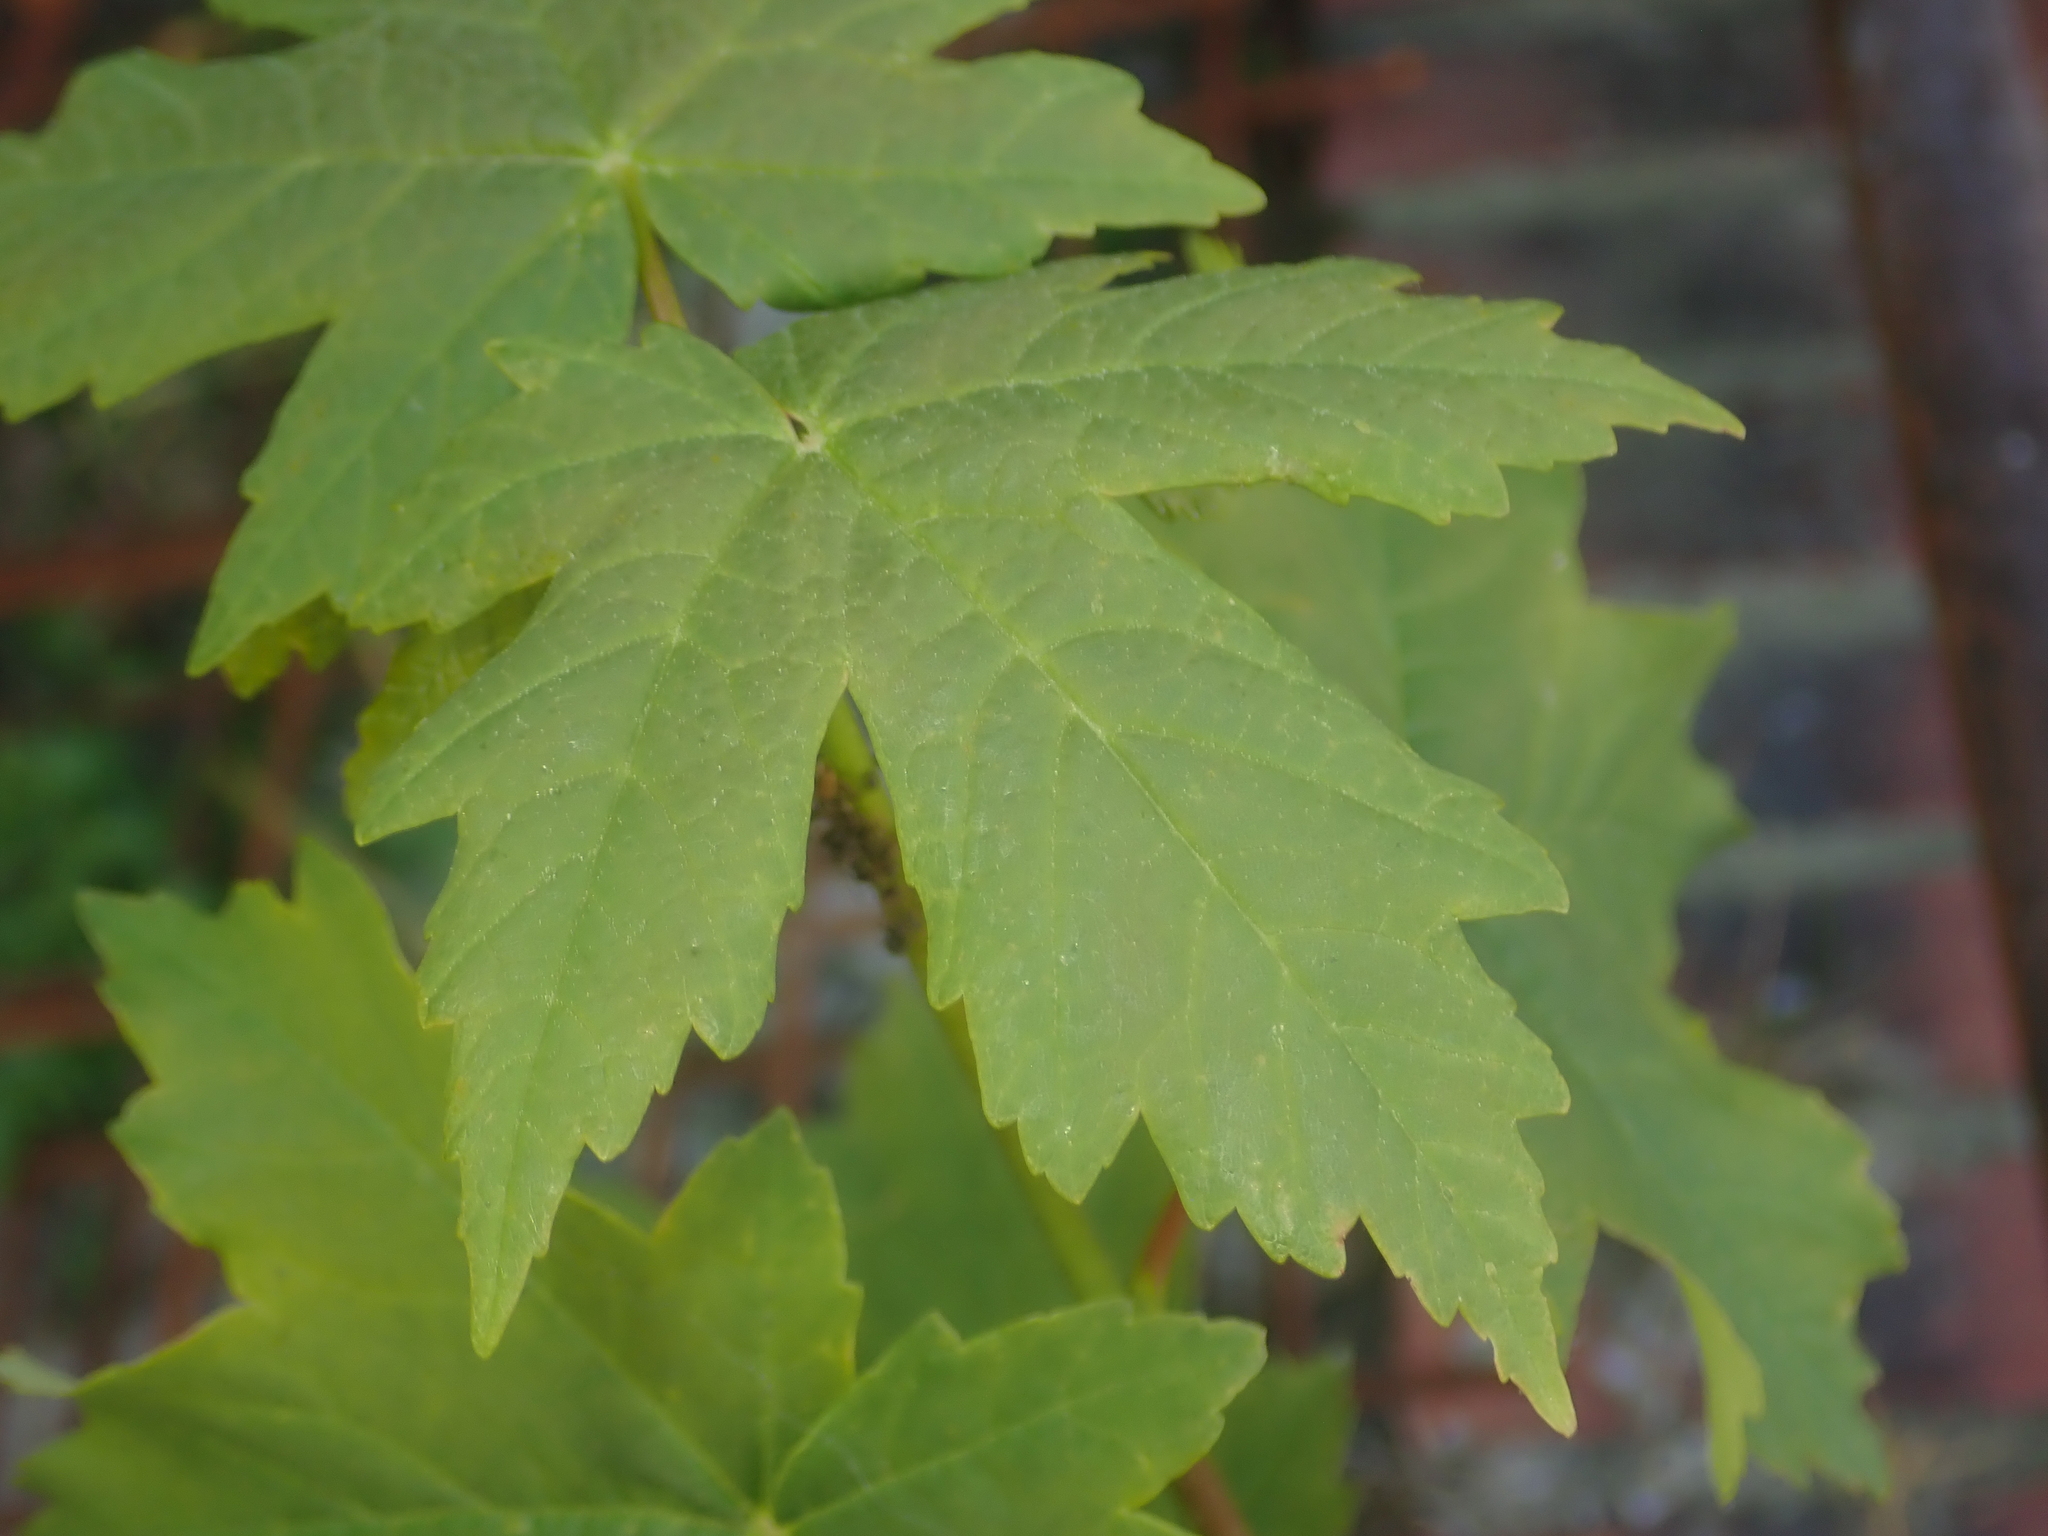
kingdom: Plantae
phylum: Tracheophyta
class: Magnoliopsida
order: Sapindales
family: Sapindaceae
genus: Acer
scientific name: Acer pseudoplatanus
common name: Sycamore
